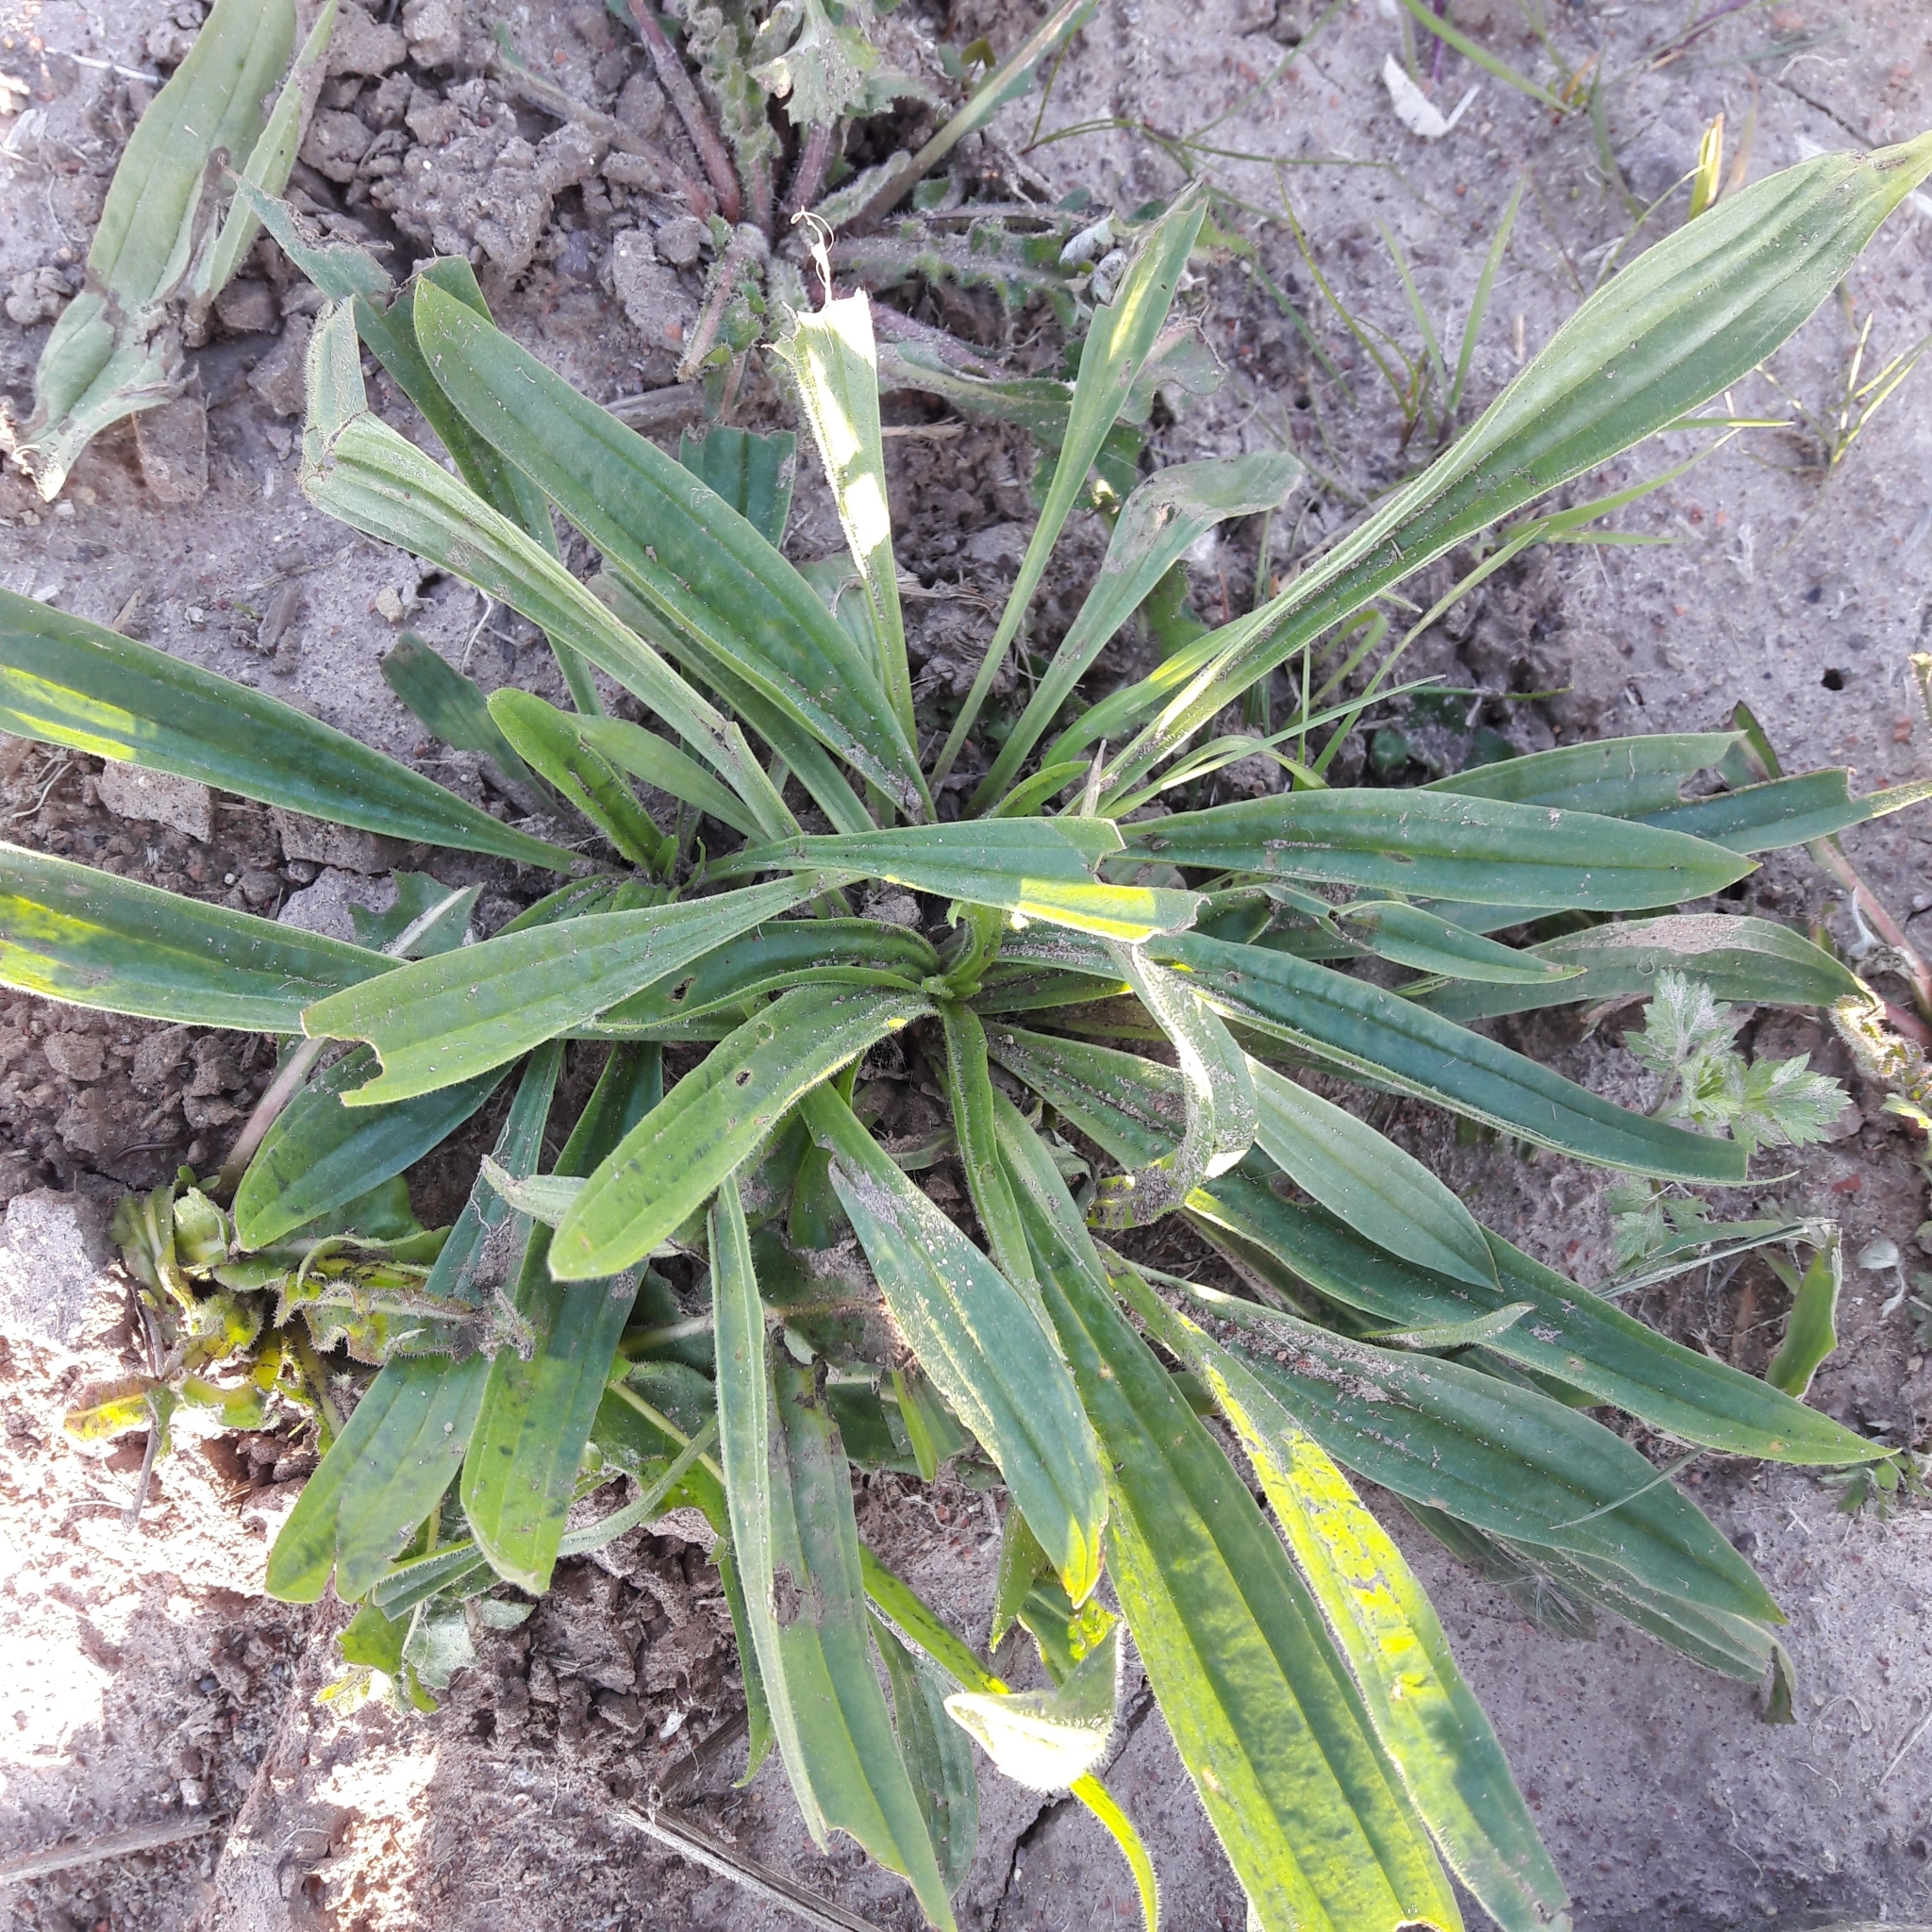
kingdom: Plantae
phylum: Tracheophyta
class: Magnoliopsida
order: Lamiales
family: Plantaginaceae
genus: Plantago
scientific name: Plantago lanceolata
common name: Ribwort plantain
